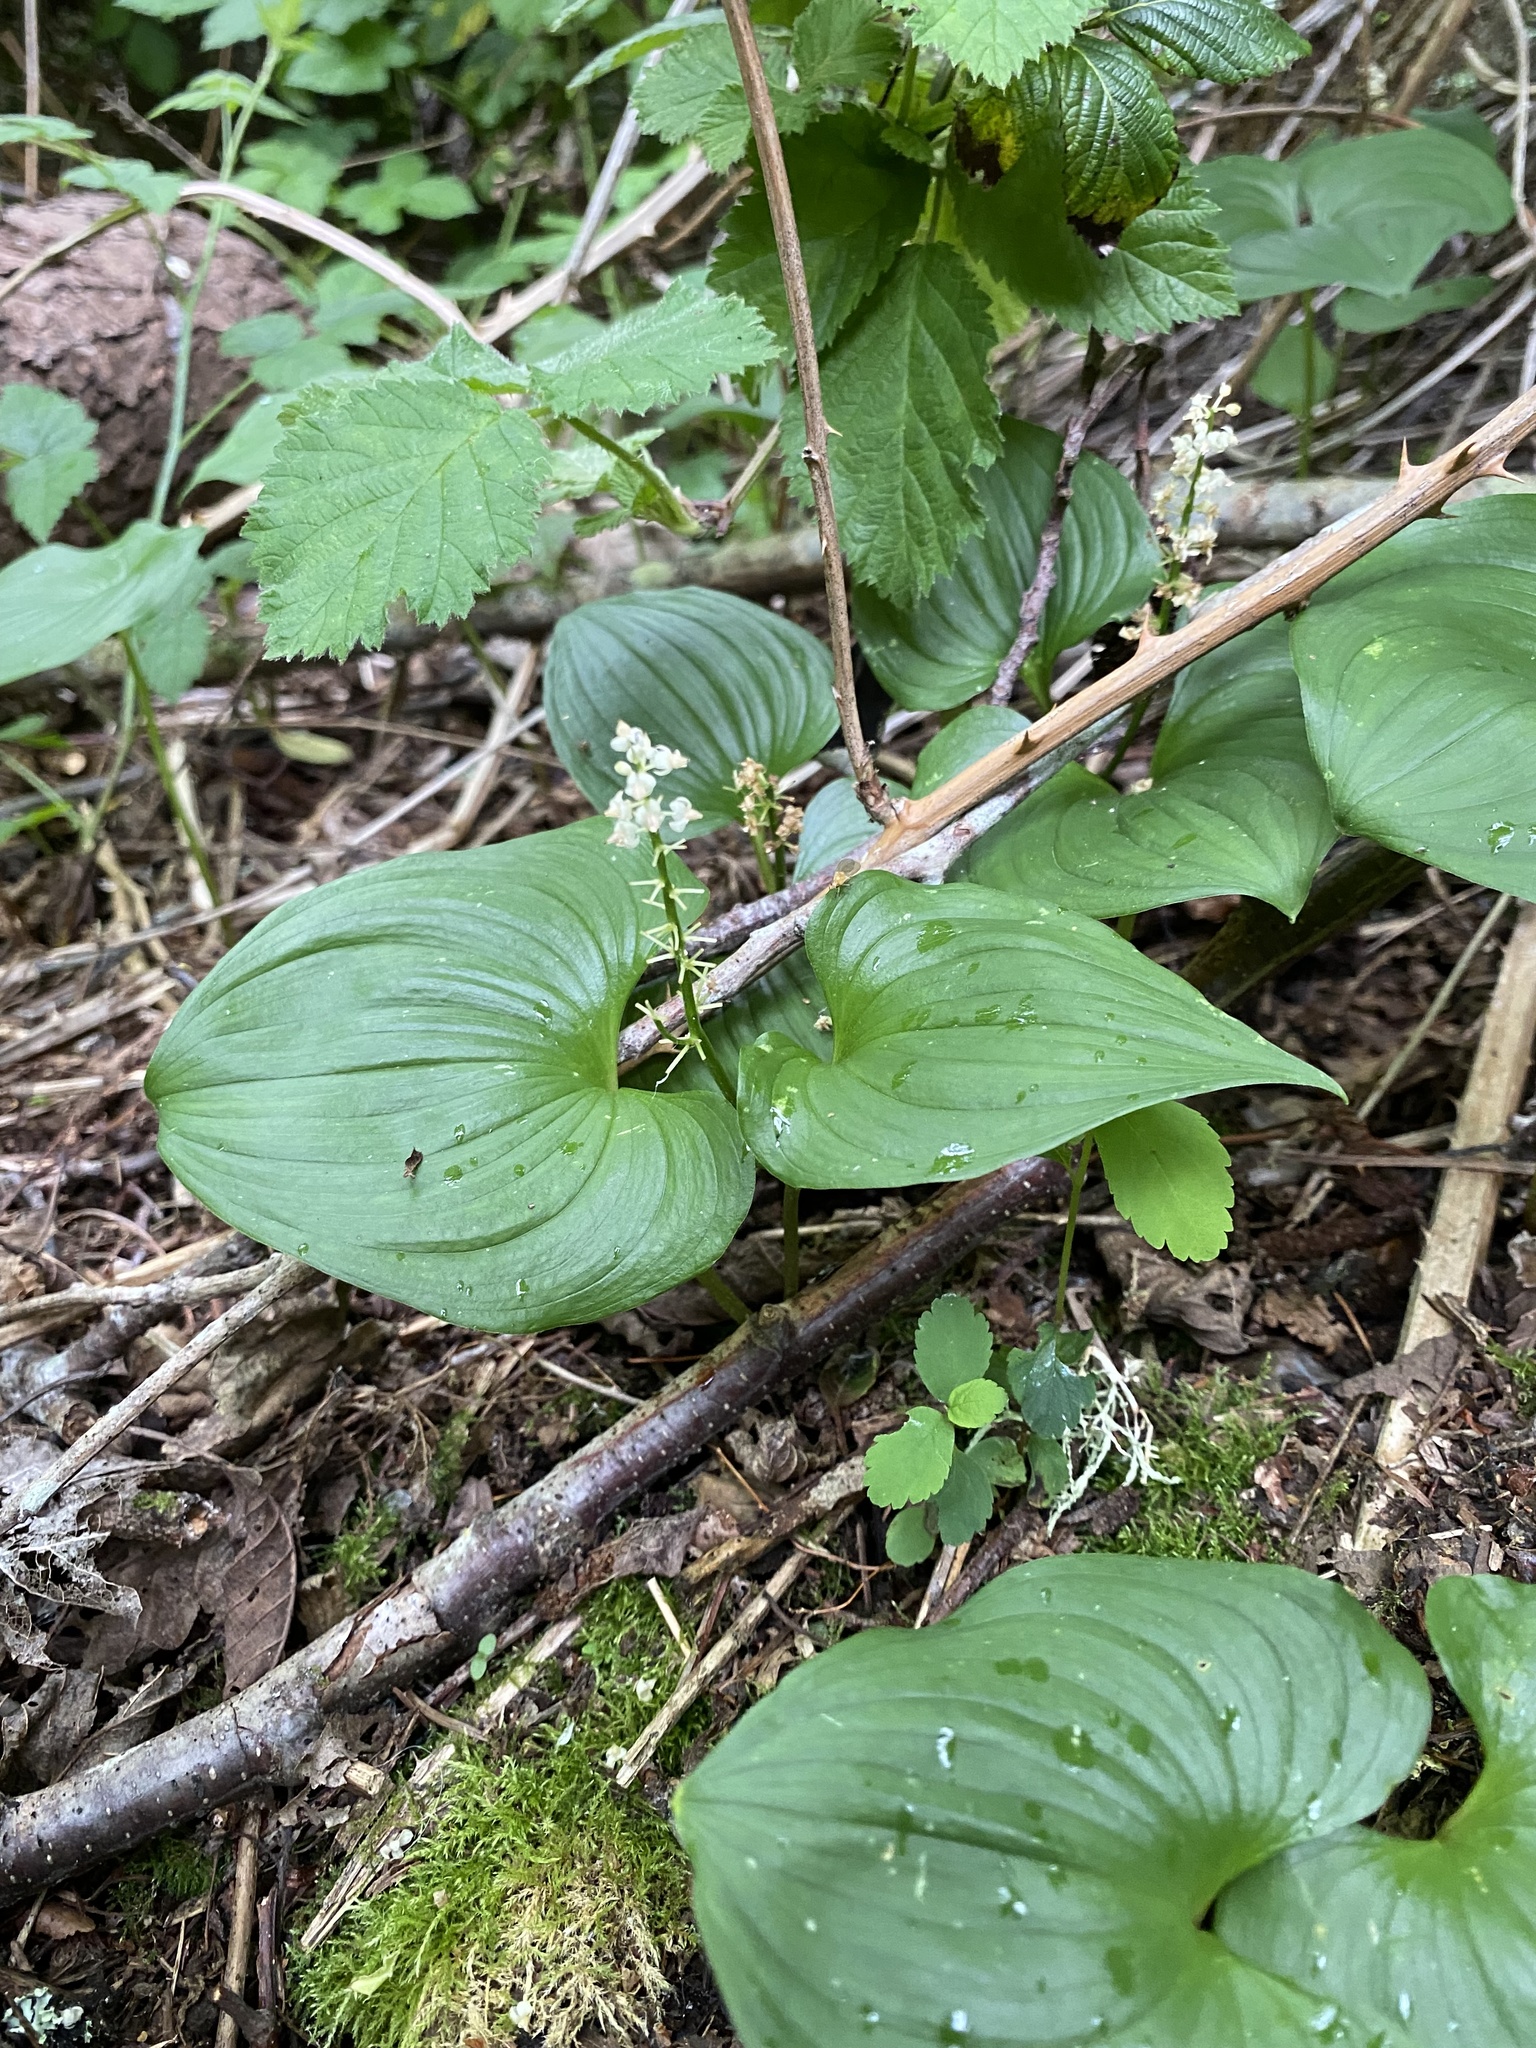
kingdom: Plantae
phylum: Tracheophyta
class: Liliopsida
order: Asparagales
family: Asparagaceae
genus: Maianthemum
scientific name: Maianthemum dilatatum
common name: False lily-of-the-valley
